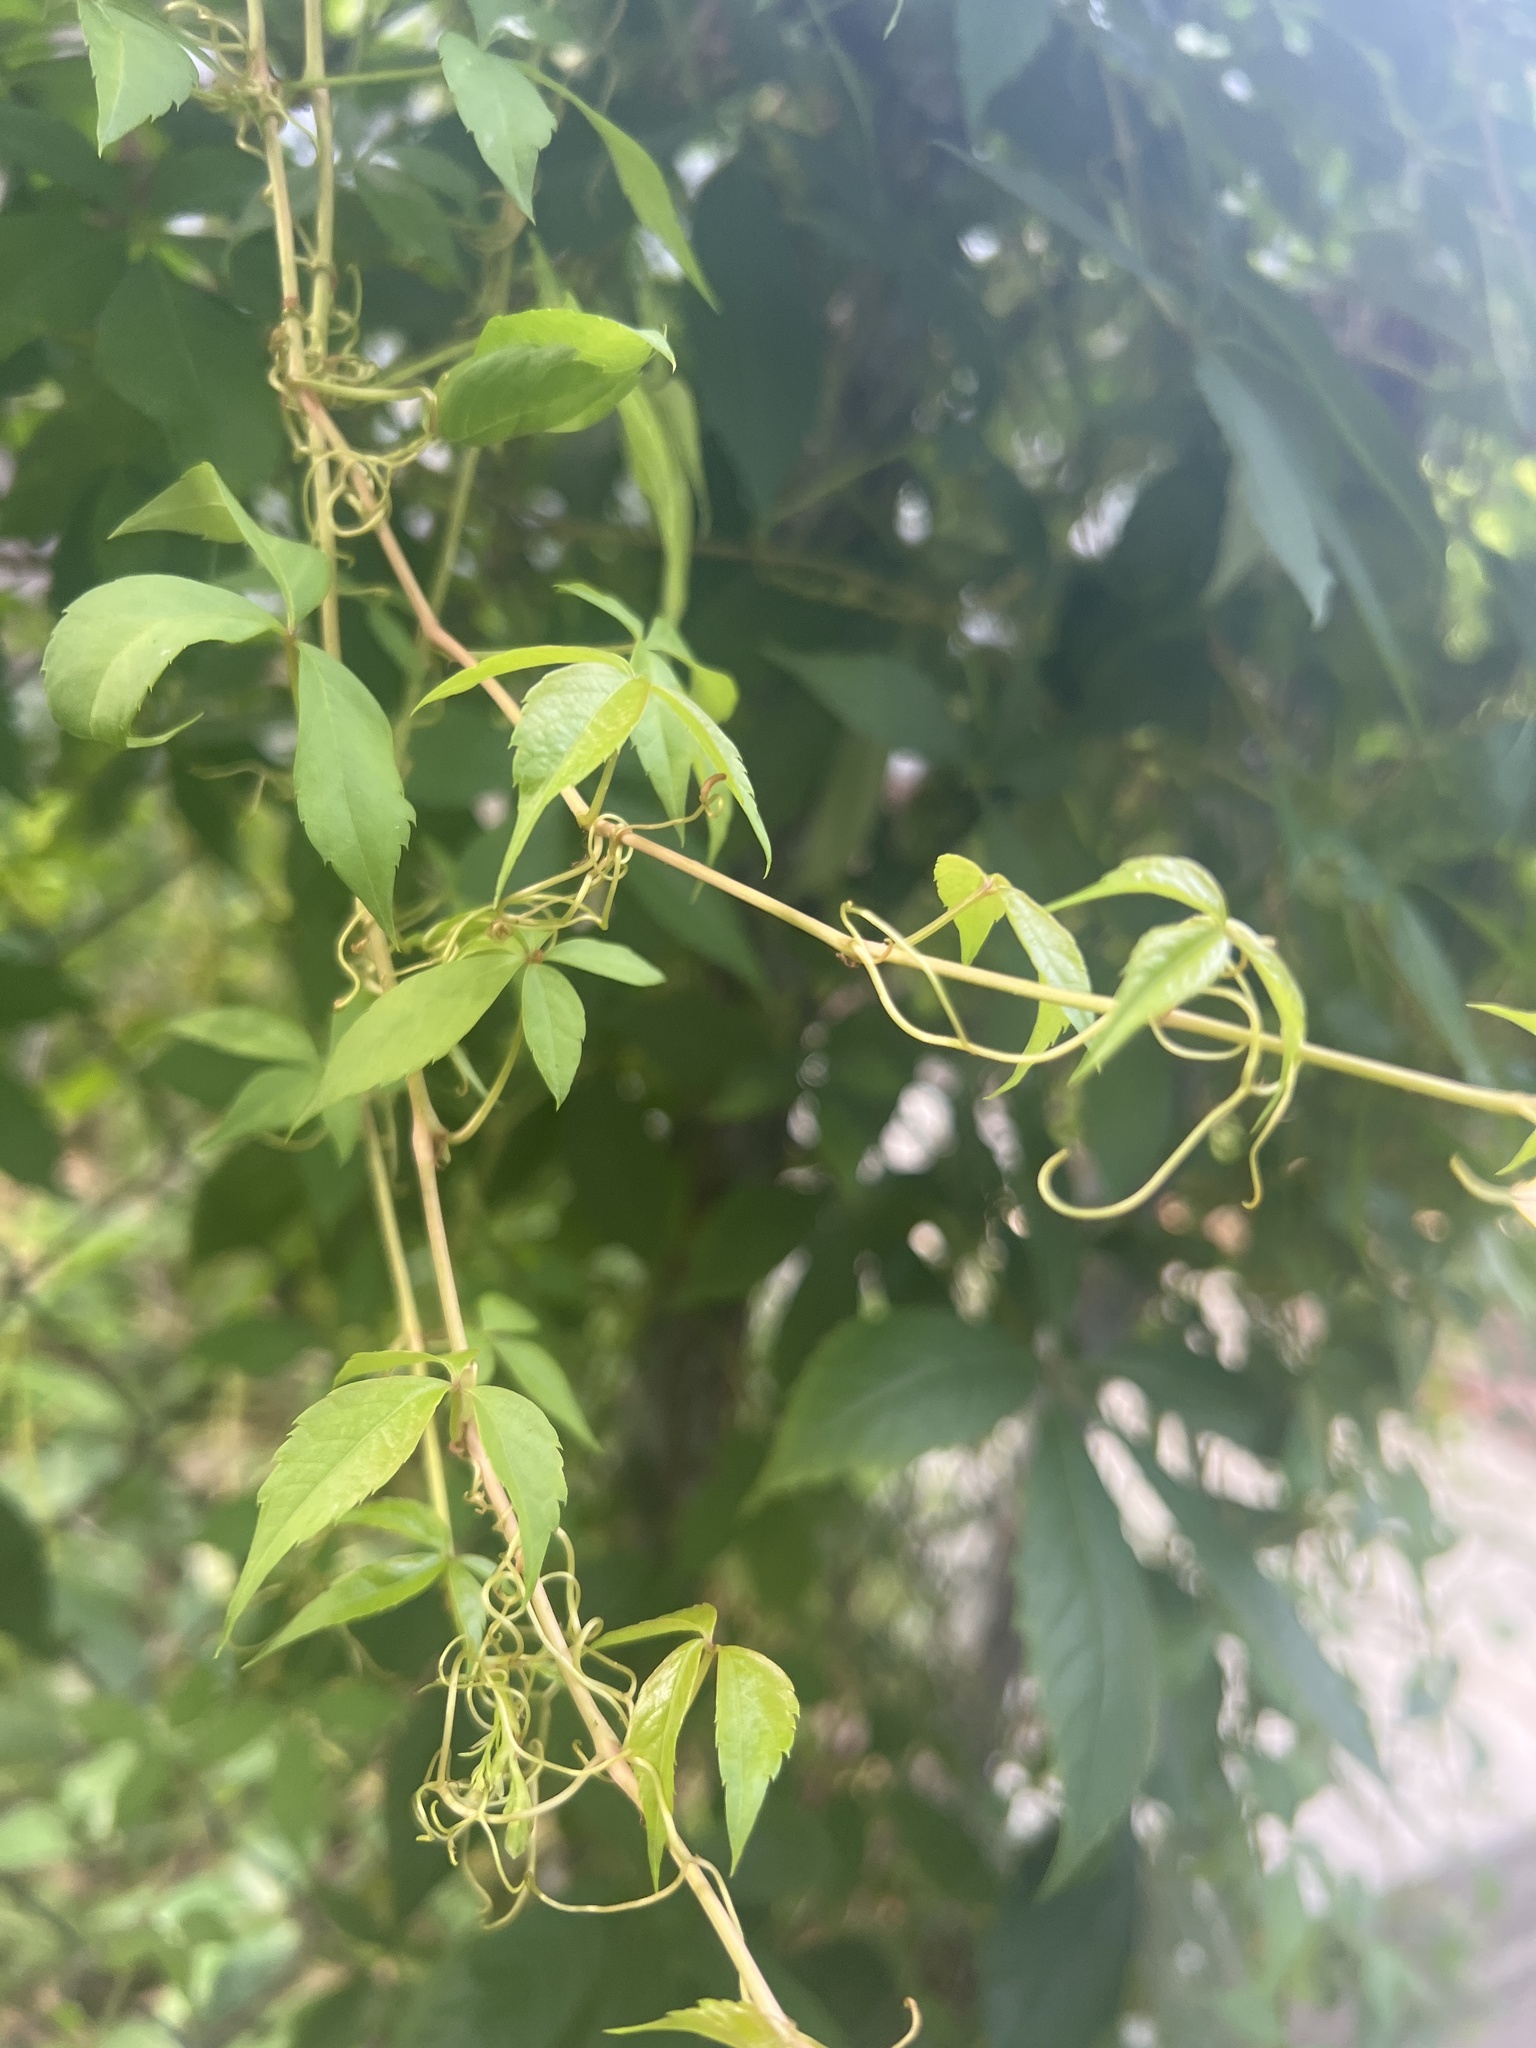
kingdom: Plantae
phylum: Tracheophyta
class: Magnoliopsida
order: Vitales
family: Vitaceae
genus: Parthenocissus
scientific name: Parthenocissus quinquefolia
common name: Virginia-creeper
